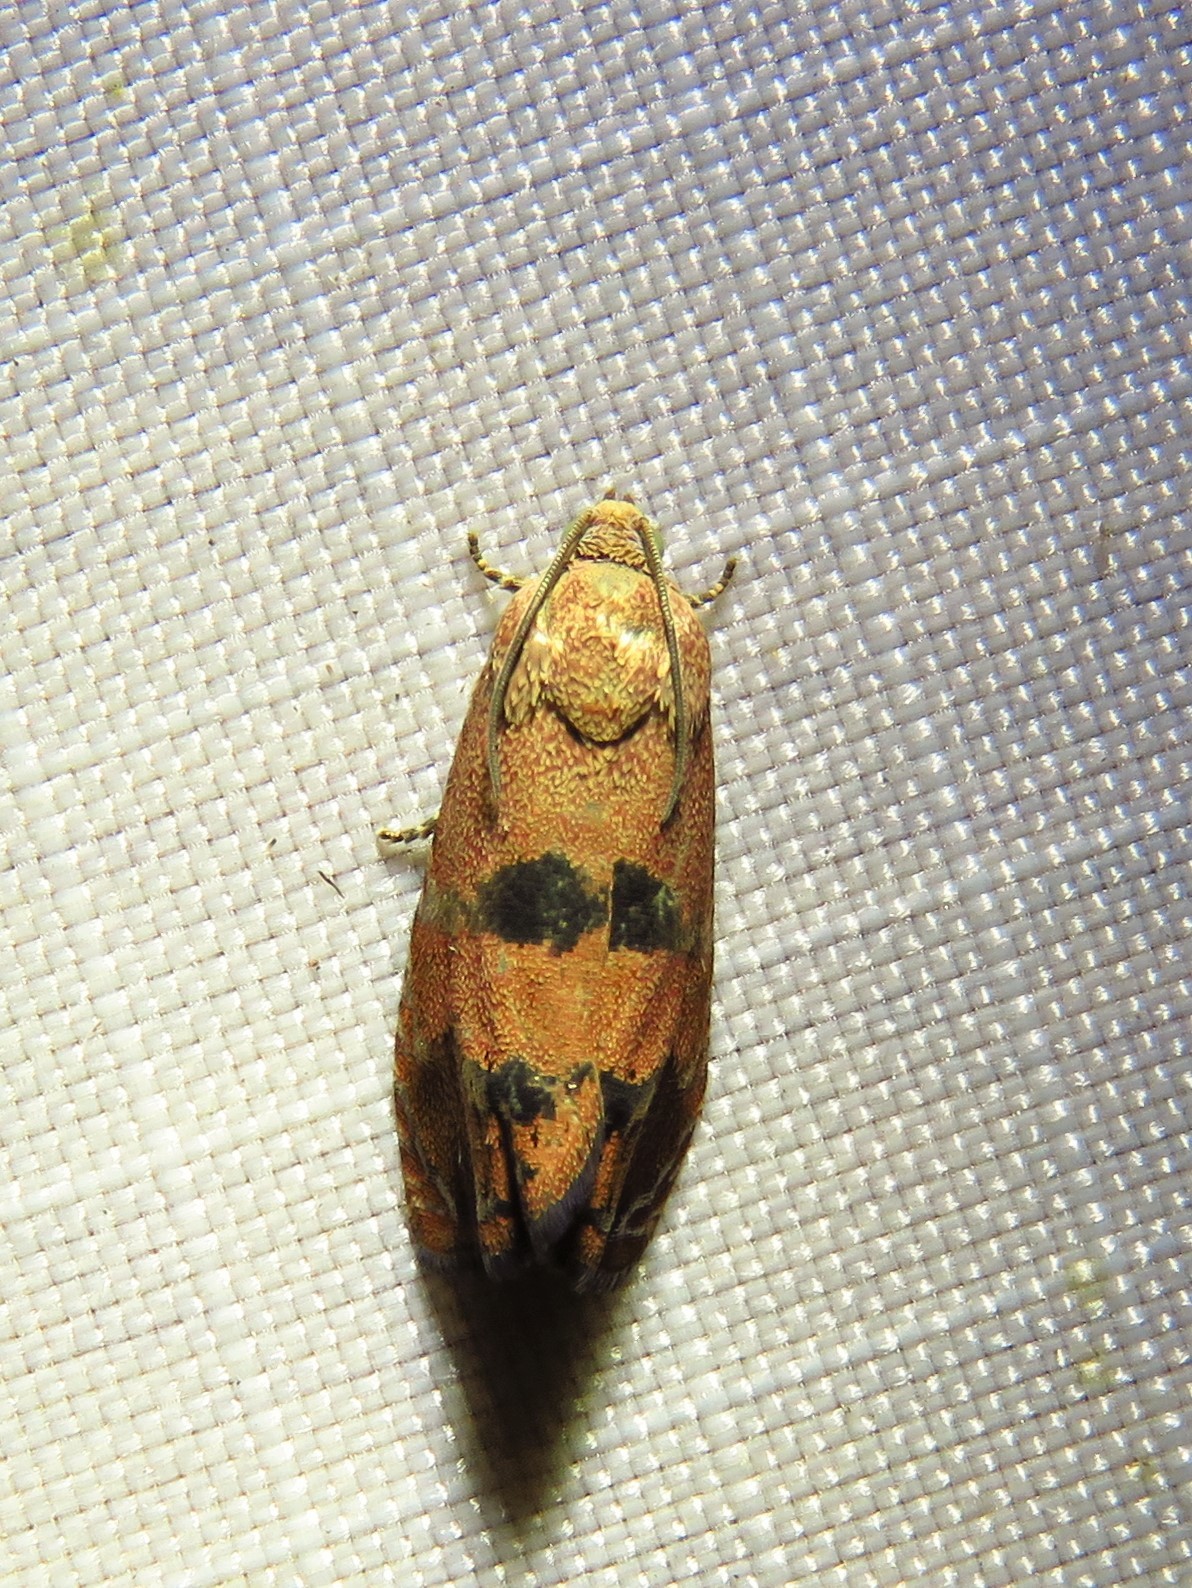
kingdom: Animalia
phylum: Arthropoda
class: Insecta
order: Lepidoptera
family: Tortricidae
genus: Cydia
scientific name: Cydia latiferreana
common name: Filbertworm moth
